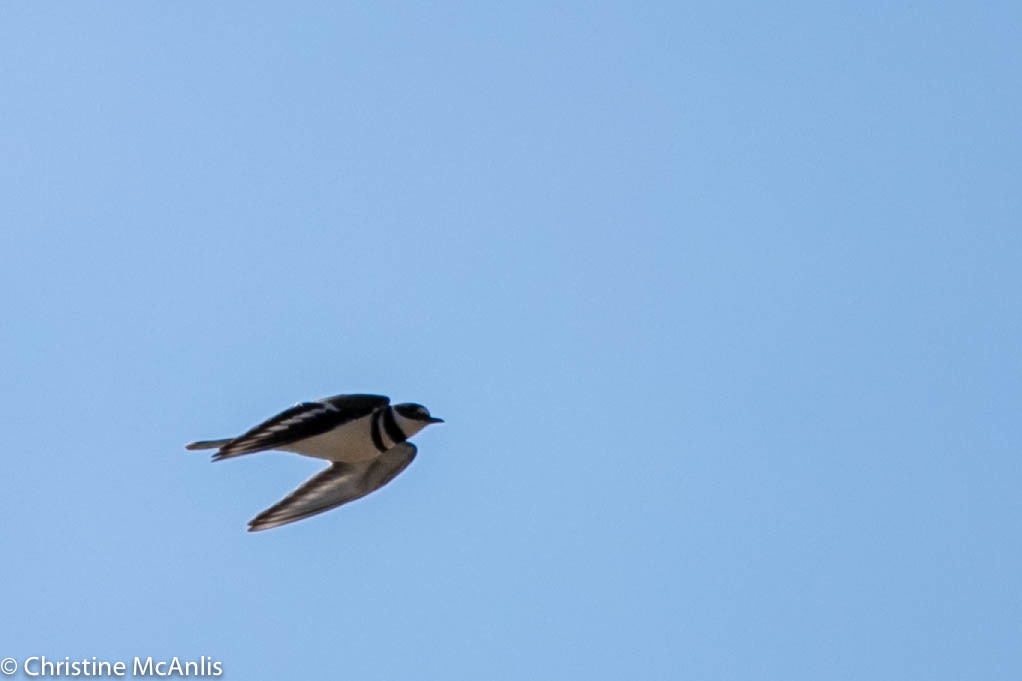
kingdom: Animalia
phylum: Chordata
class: Aves
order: Charadriiformes
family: Charadriidae
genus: Charadrius
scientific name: Charadrius vociferus
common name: Killdeer
